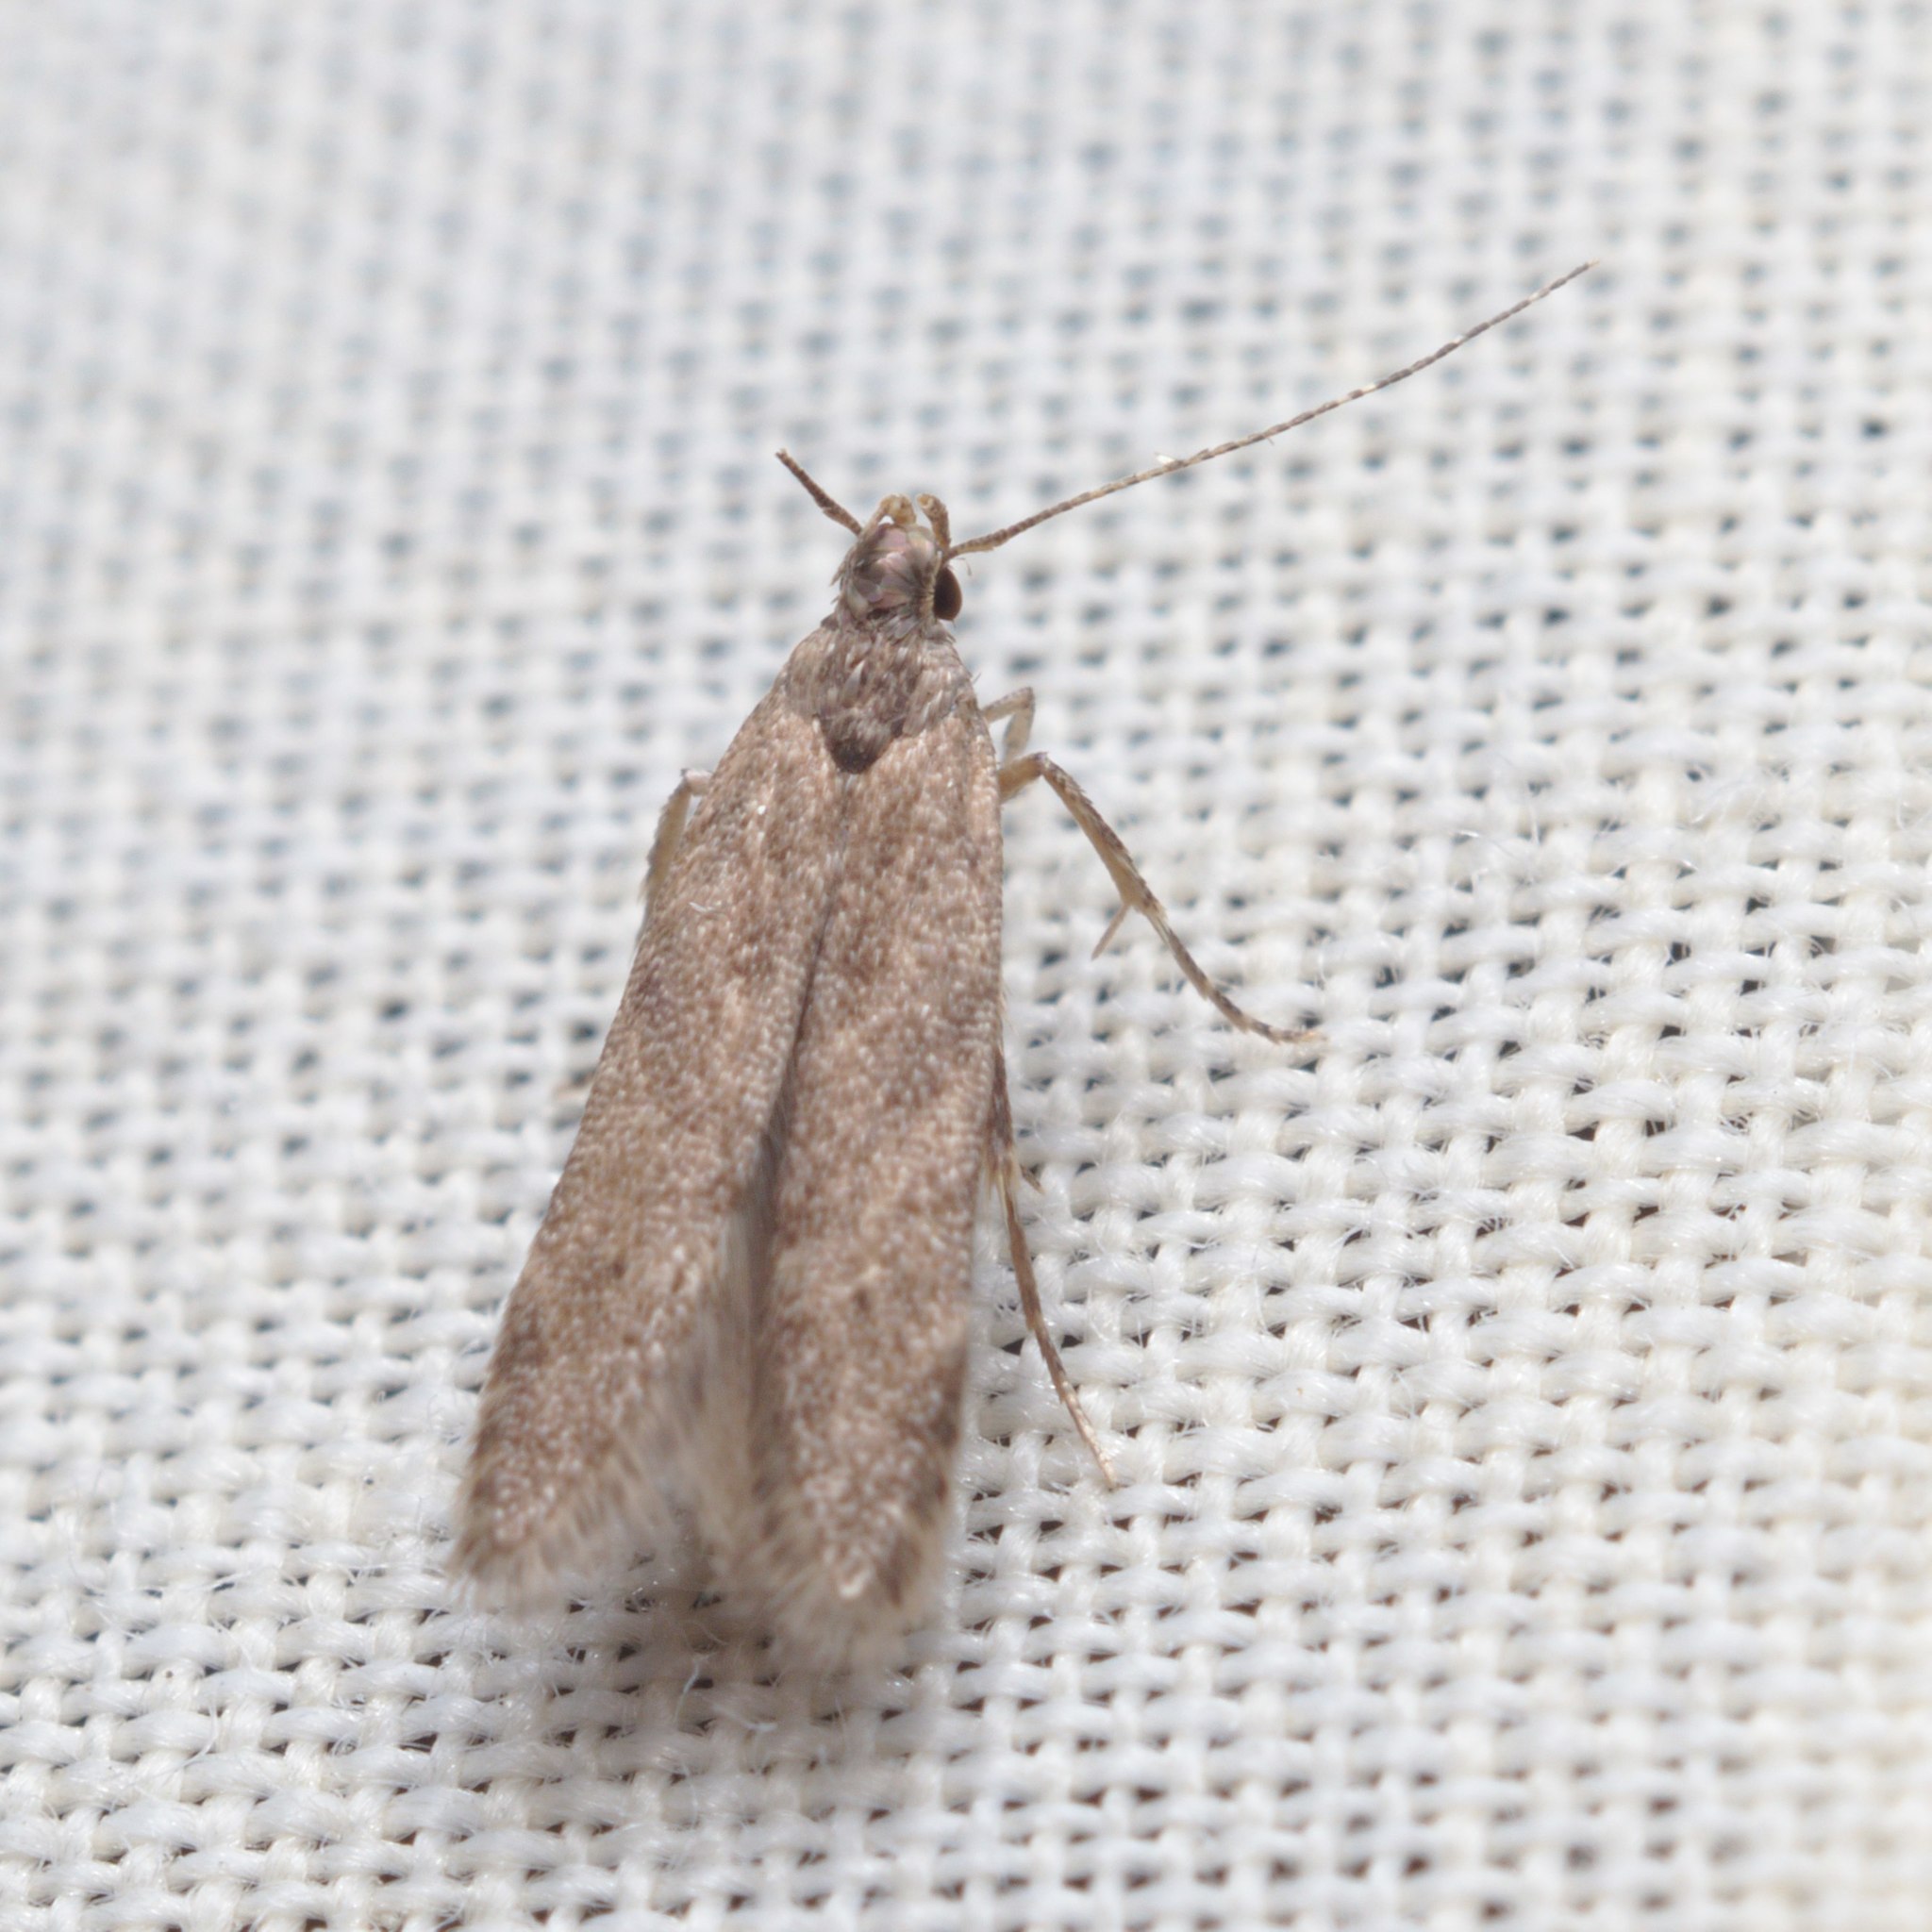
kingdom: Animalia
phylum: Arthropoda
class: Insecta
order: Lepidoptera
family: Gelechiidae
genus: Monochroa
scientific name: Monochroa
